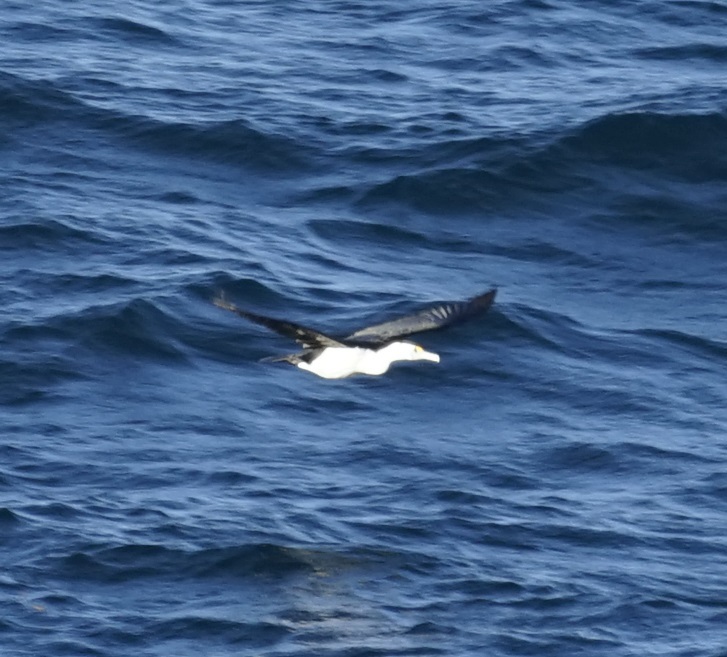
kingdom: Animalia
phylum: Chordata
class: Aves
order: Suliformes
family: Phalacrocoracidae
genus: Phalacrocorax
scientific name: Phalacrocorax varius
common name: Pied cormorant
